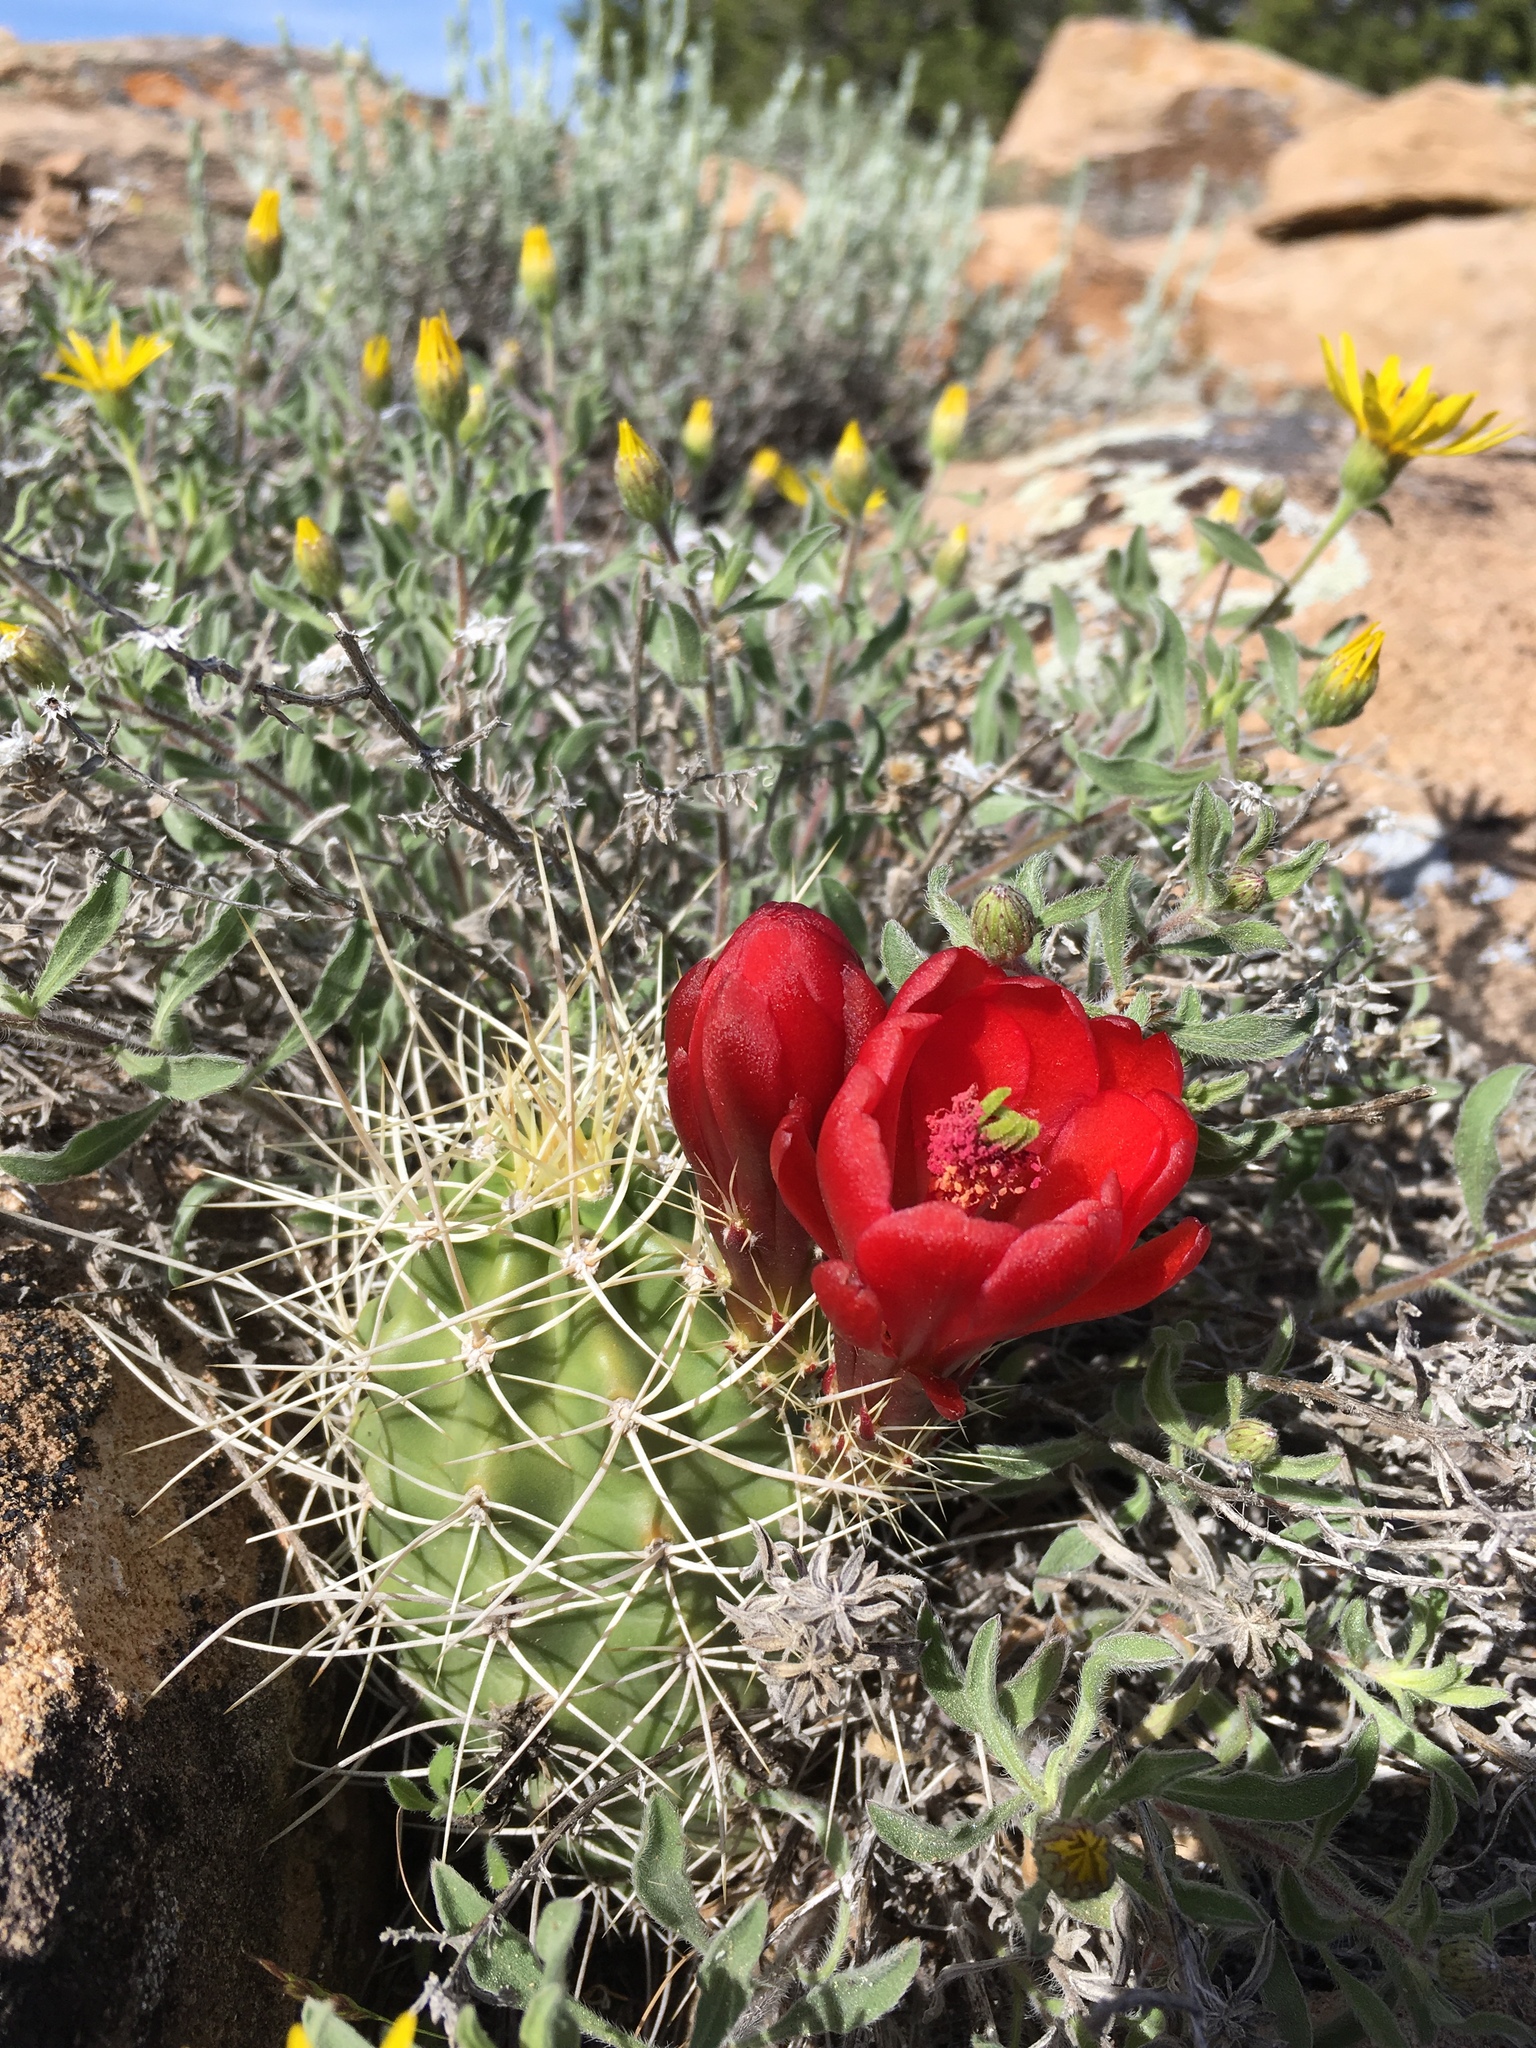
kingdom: Plantae
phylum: Tracheophyta
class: Magnoliopsida
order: Caryophyllales
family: Cactaceae
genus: Echinocereus
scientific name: Echinocereus triglochidiatus
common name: Claretcup hedgehog
